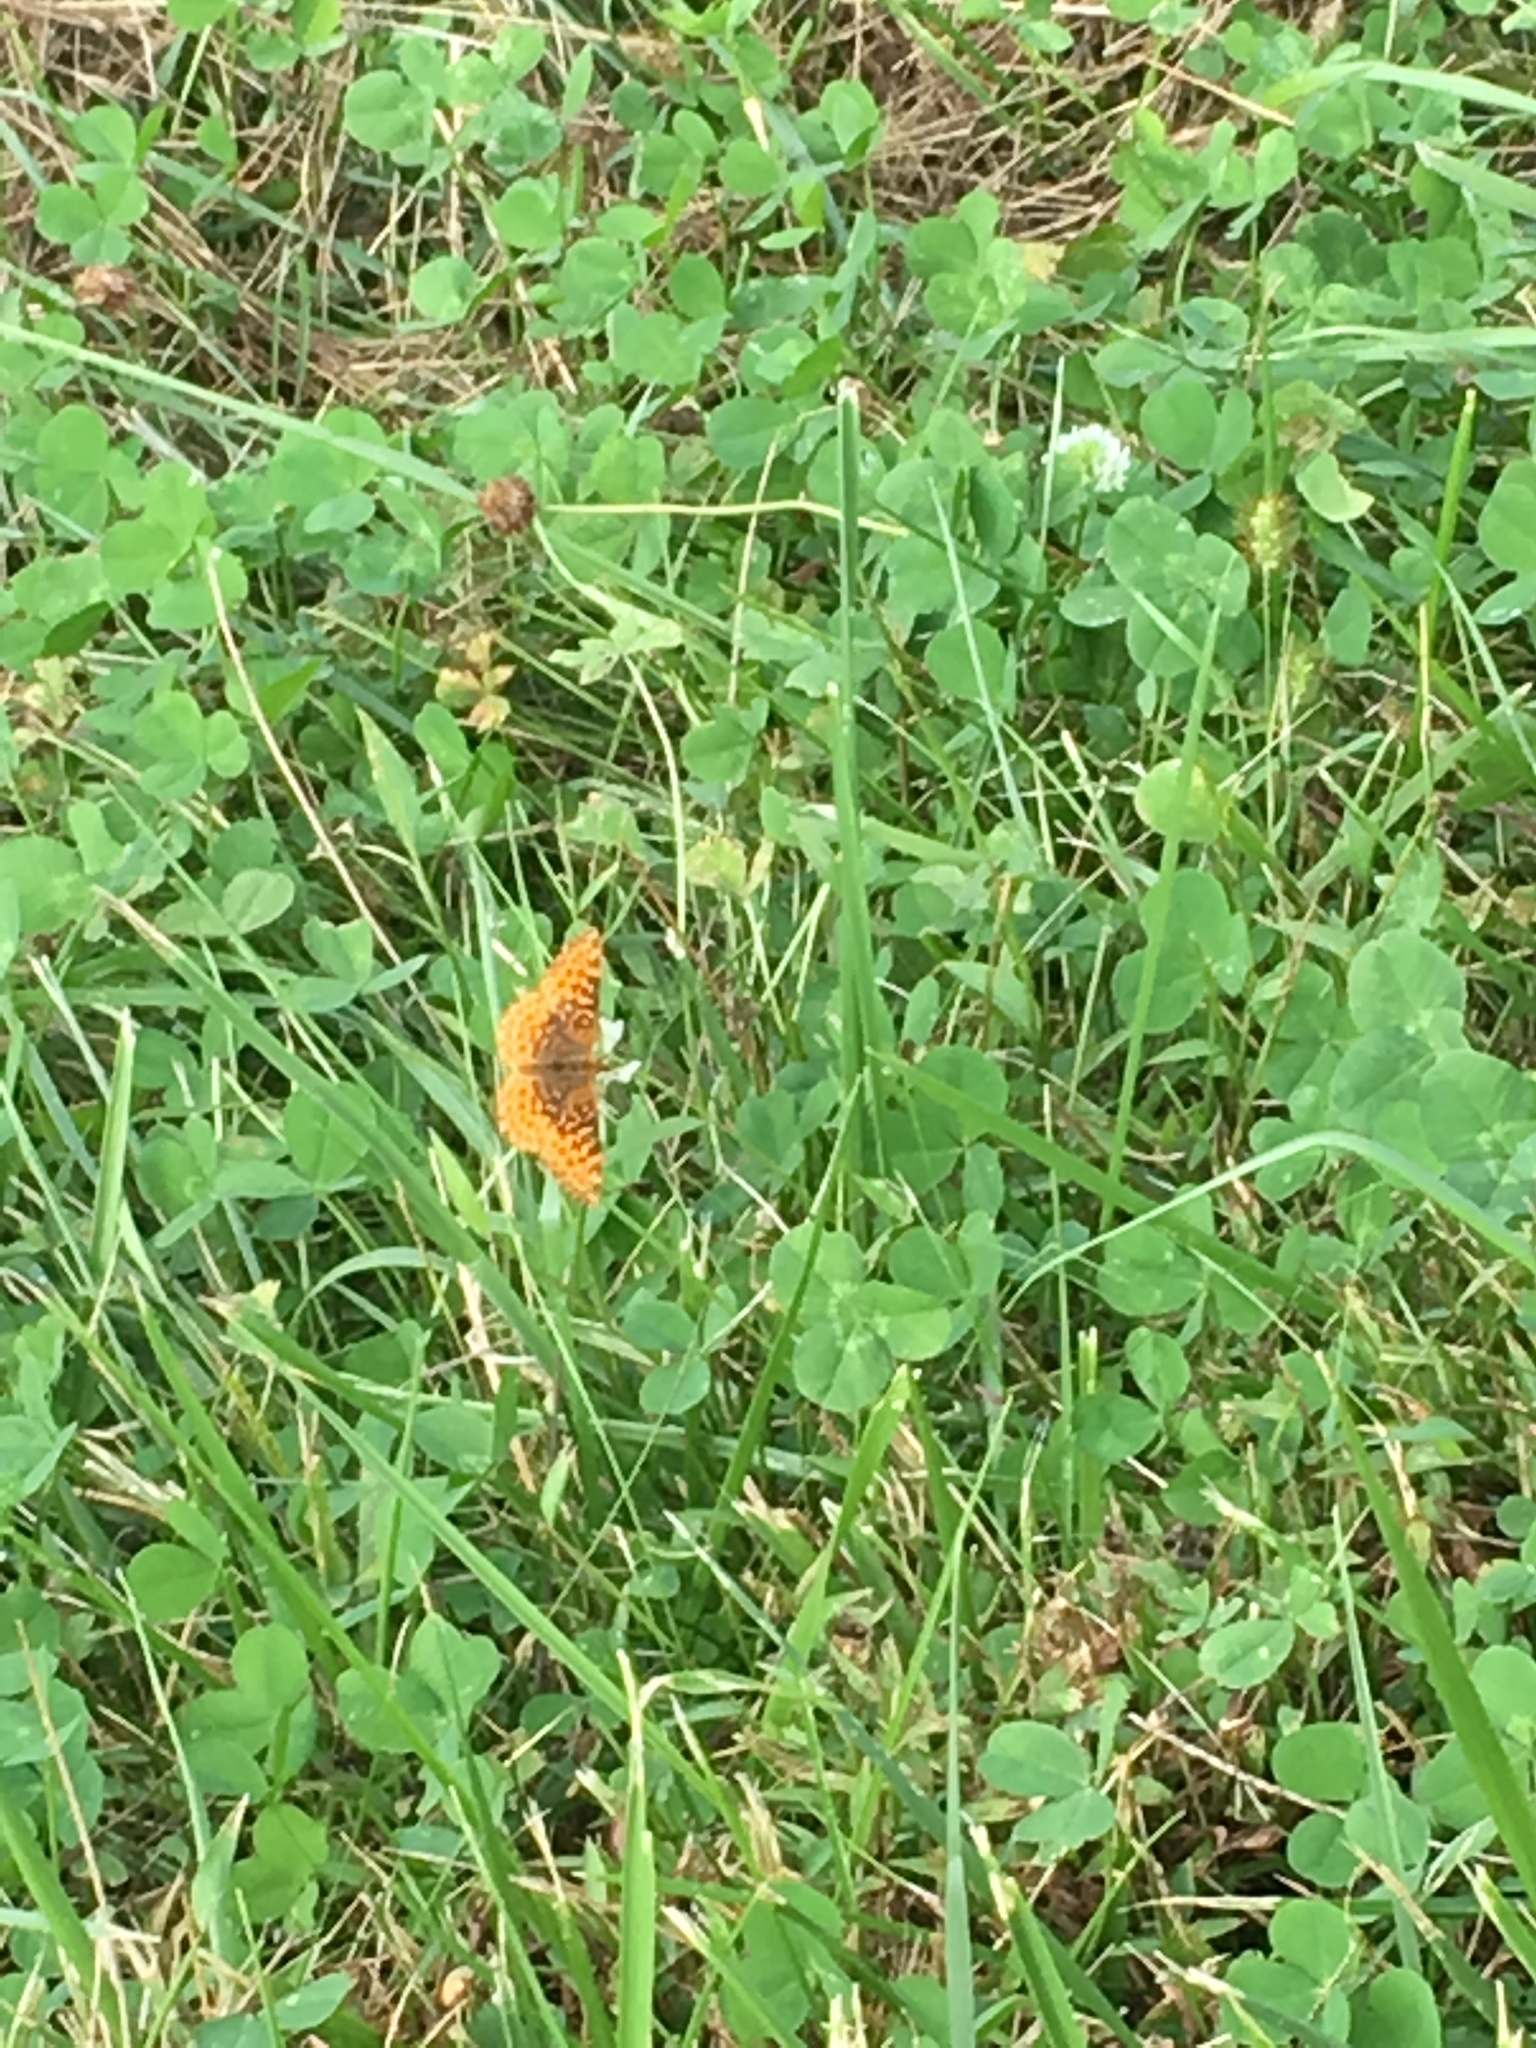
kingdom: Animalia
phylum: Arthropoda
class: Insecta
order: Lepidoptera
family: Nymphalidae
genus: Clossiana
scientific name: Clossiana toddi
